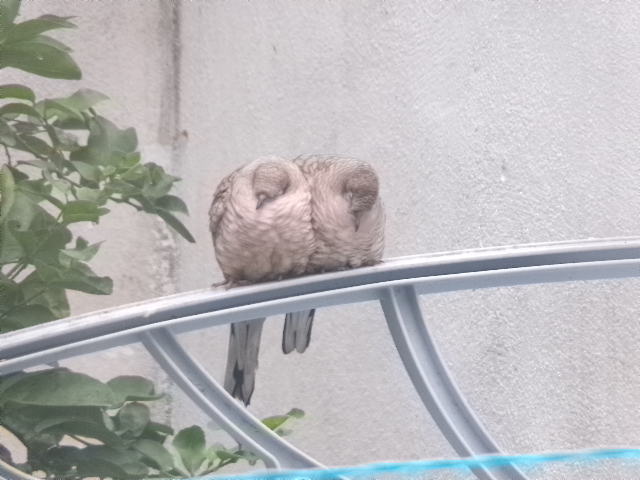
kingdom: Animalia
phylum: Chordata
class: Aves
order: Columbiformes
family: Columbidae
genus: Columbina
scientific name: Columbina inca
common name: Inca dove
